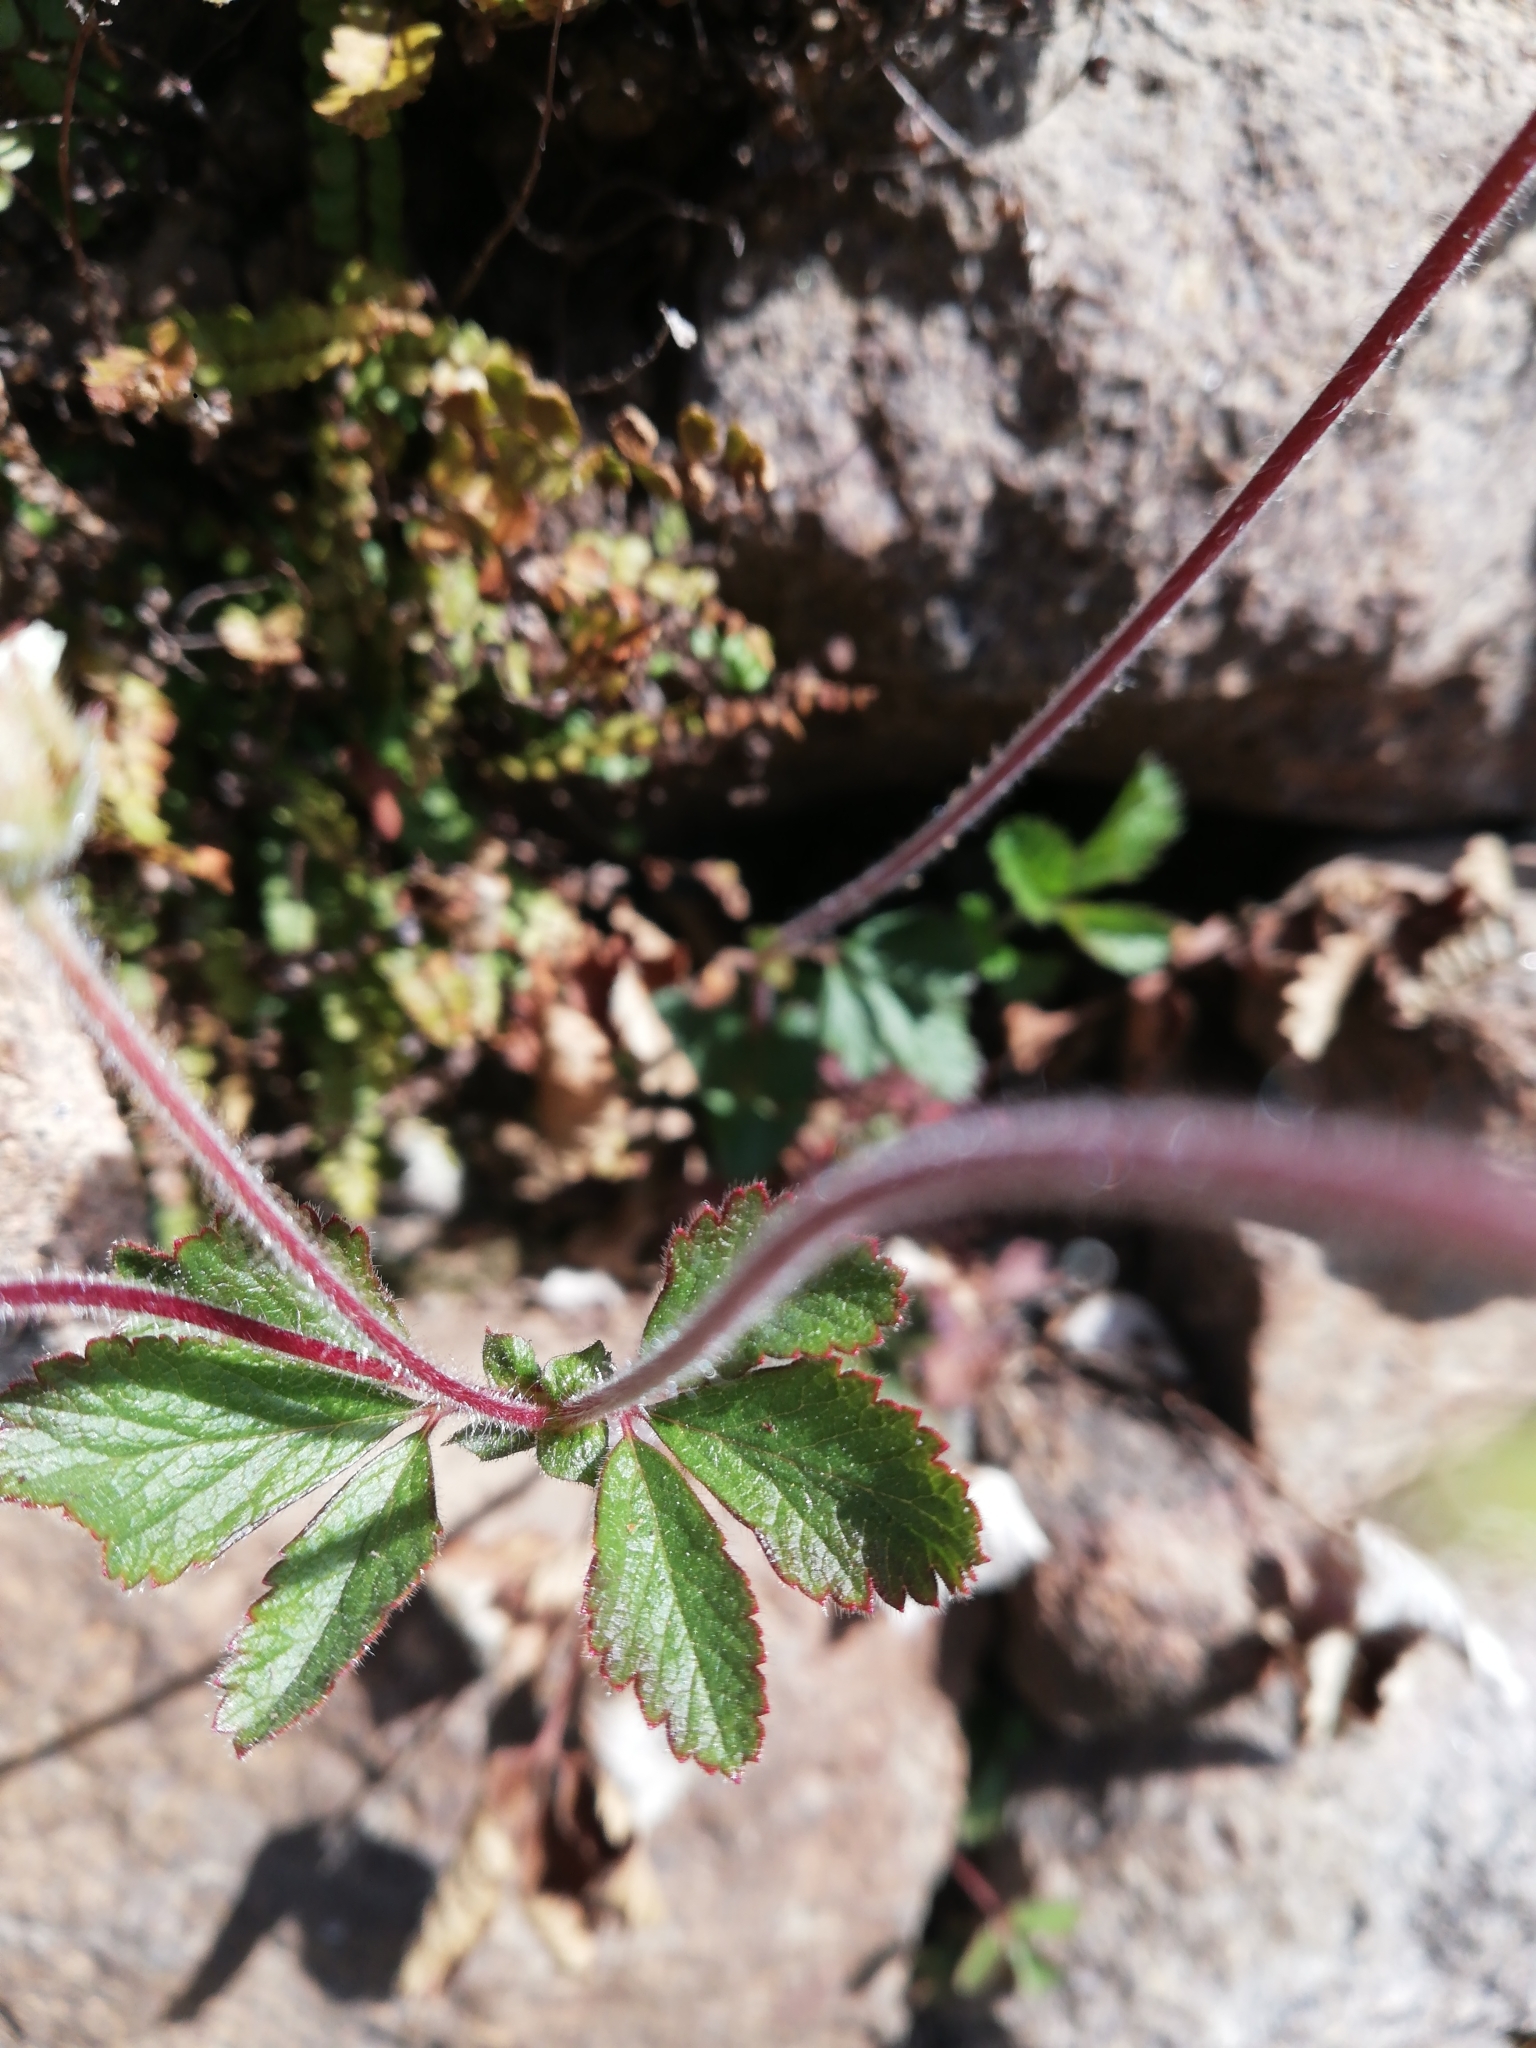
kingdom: Plantae
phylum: Tracheophyta
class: Magnoliopsida
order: Rosales
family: Rosaceae
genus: Drymocallis
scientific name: Drymocallis rupestris
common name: Rock cinquefoil
